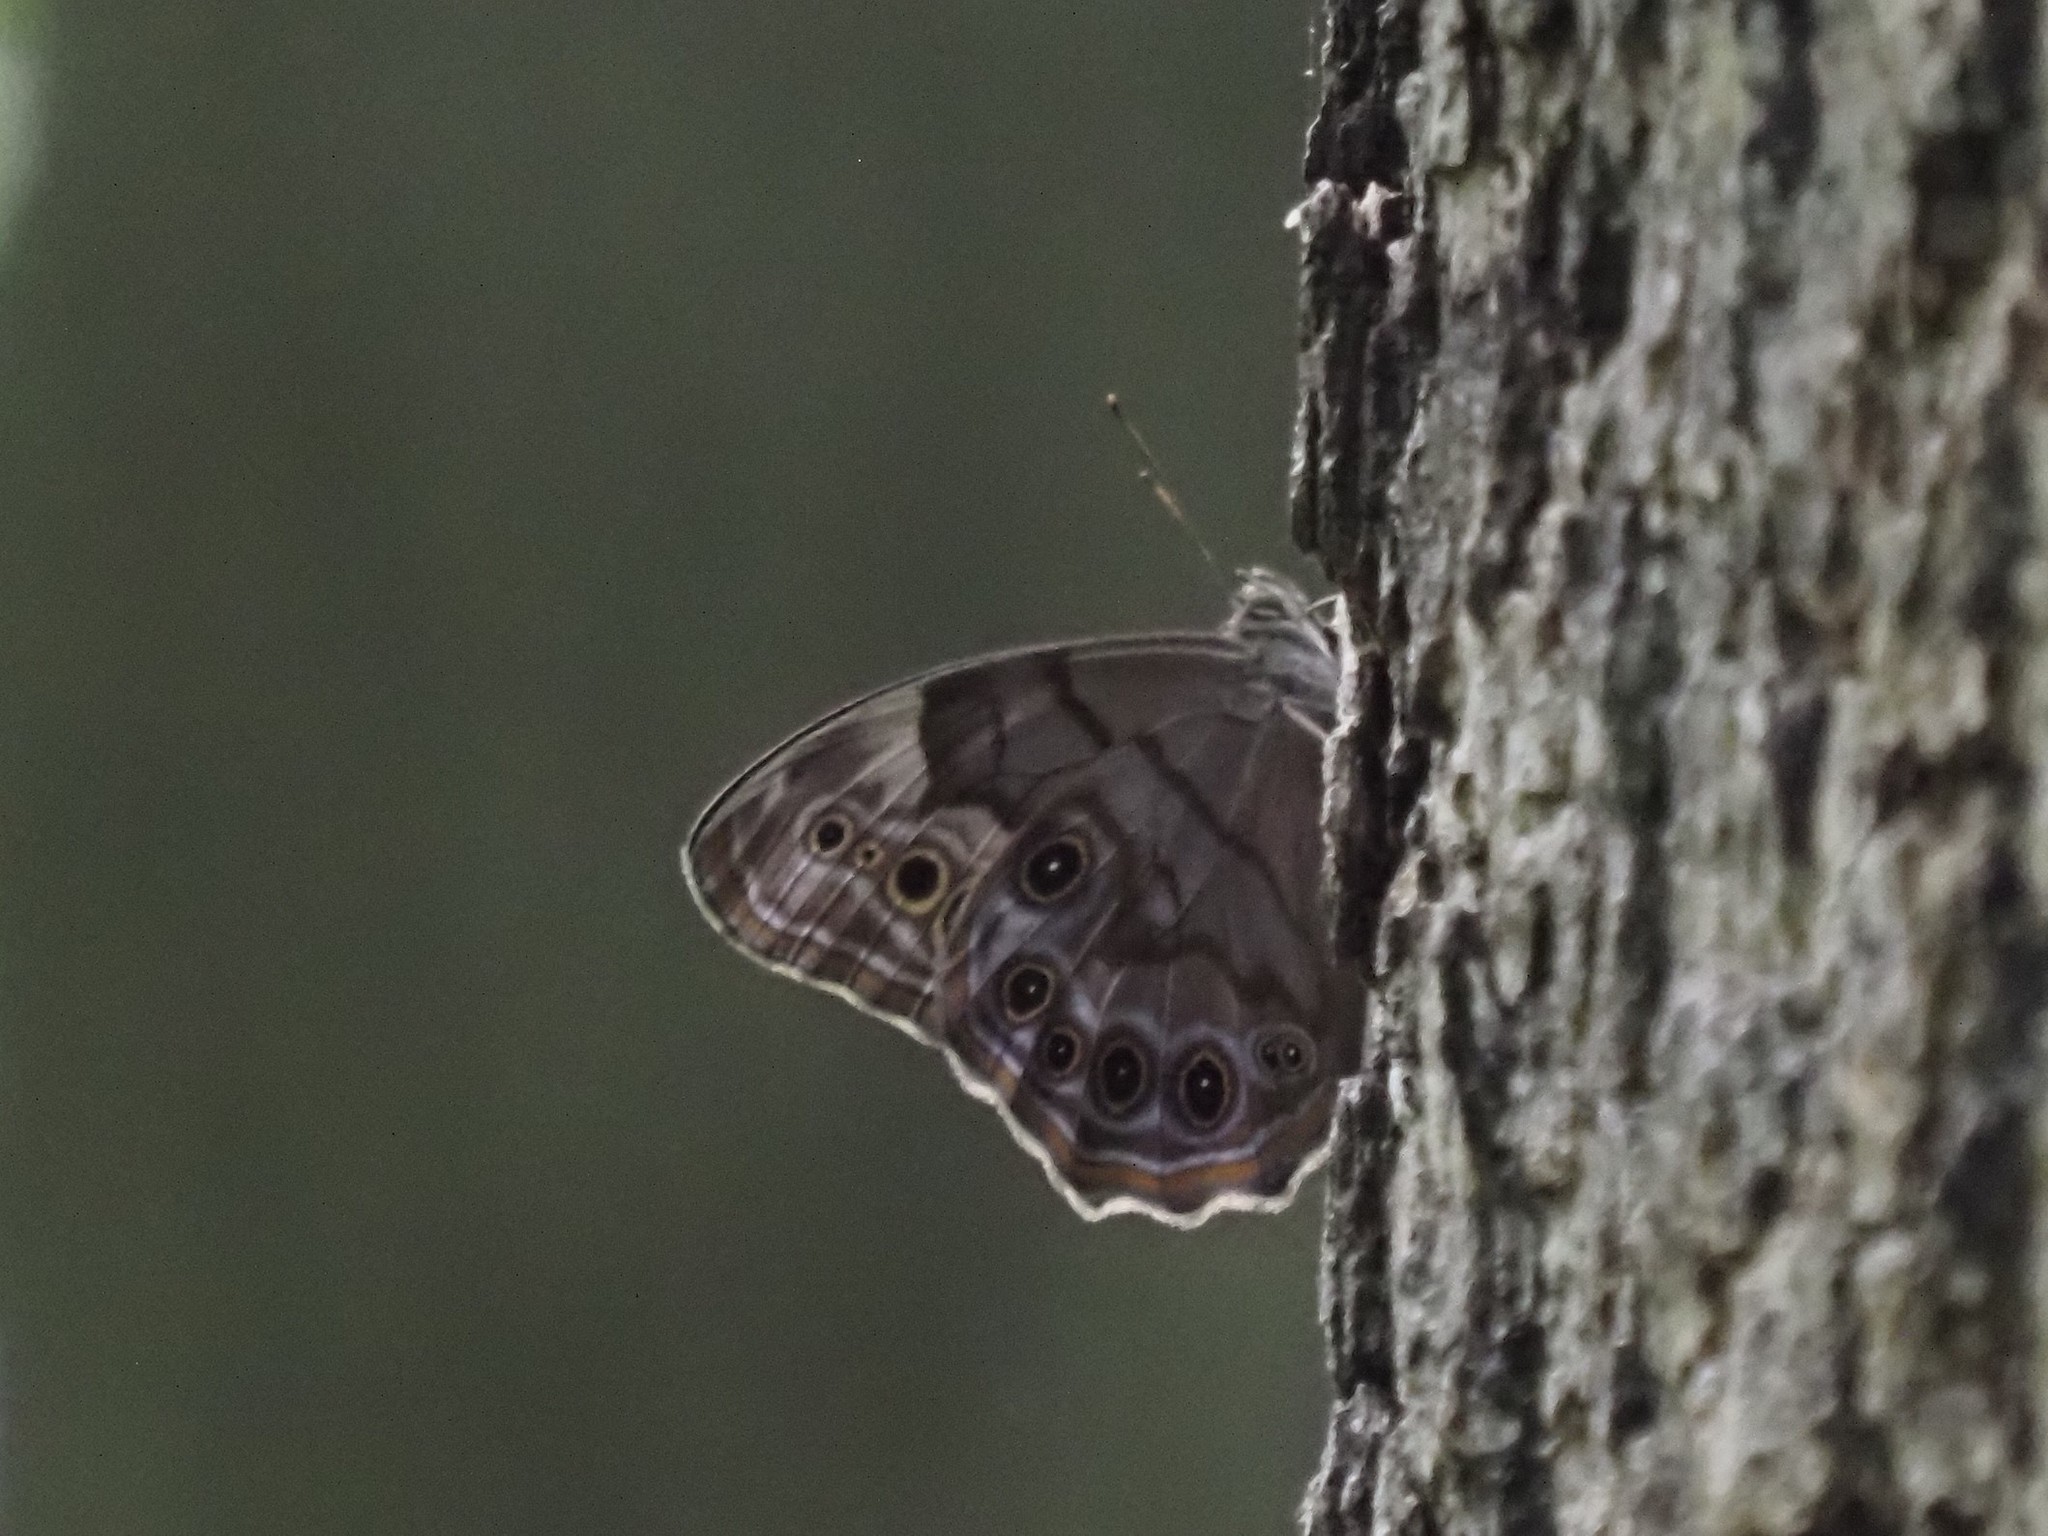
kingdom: Animalia
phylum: Arthropoda
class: Insecta
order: Lepidoptera
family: Nymphalidae
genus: Lethe
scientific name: Lethe anthedon
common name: Northern pearly-eye
